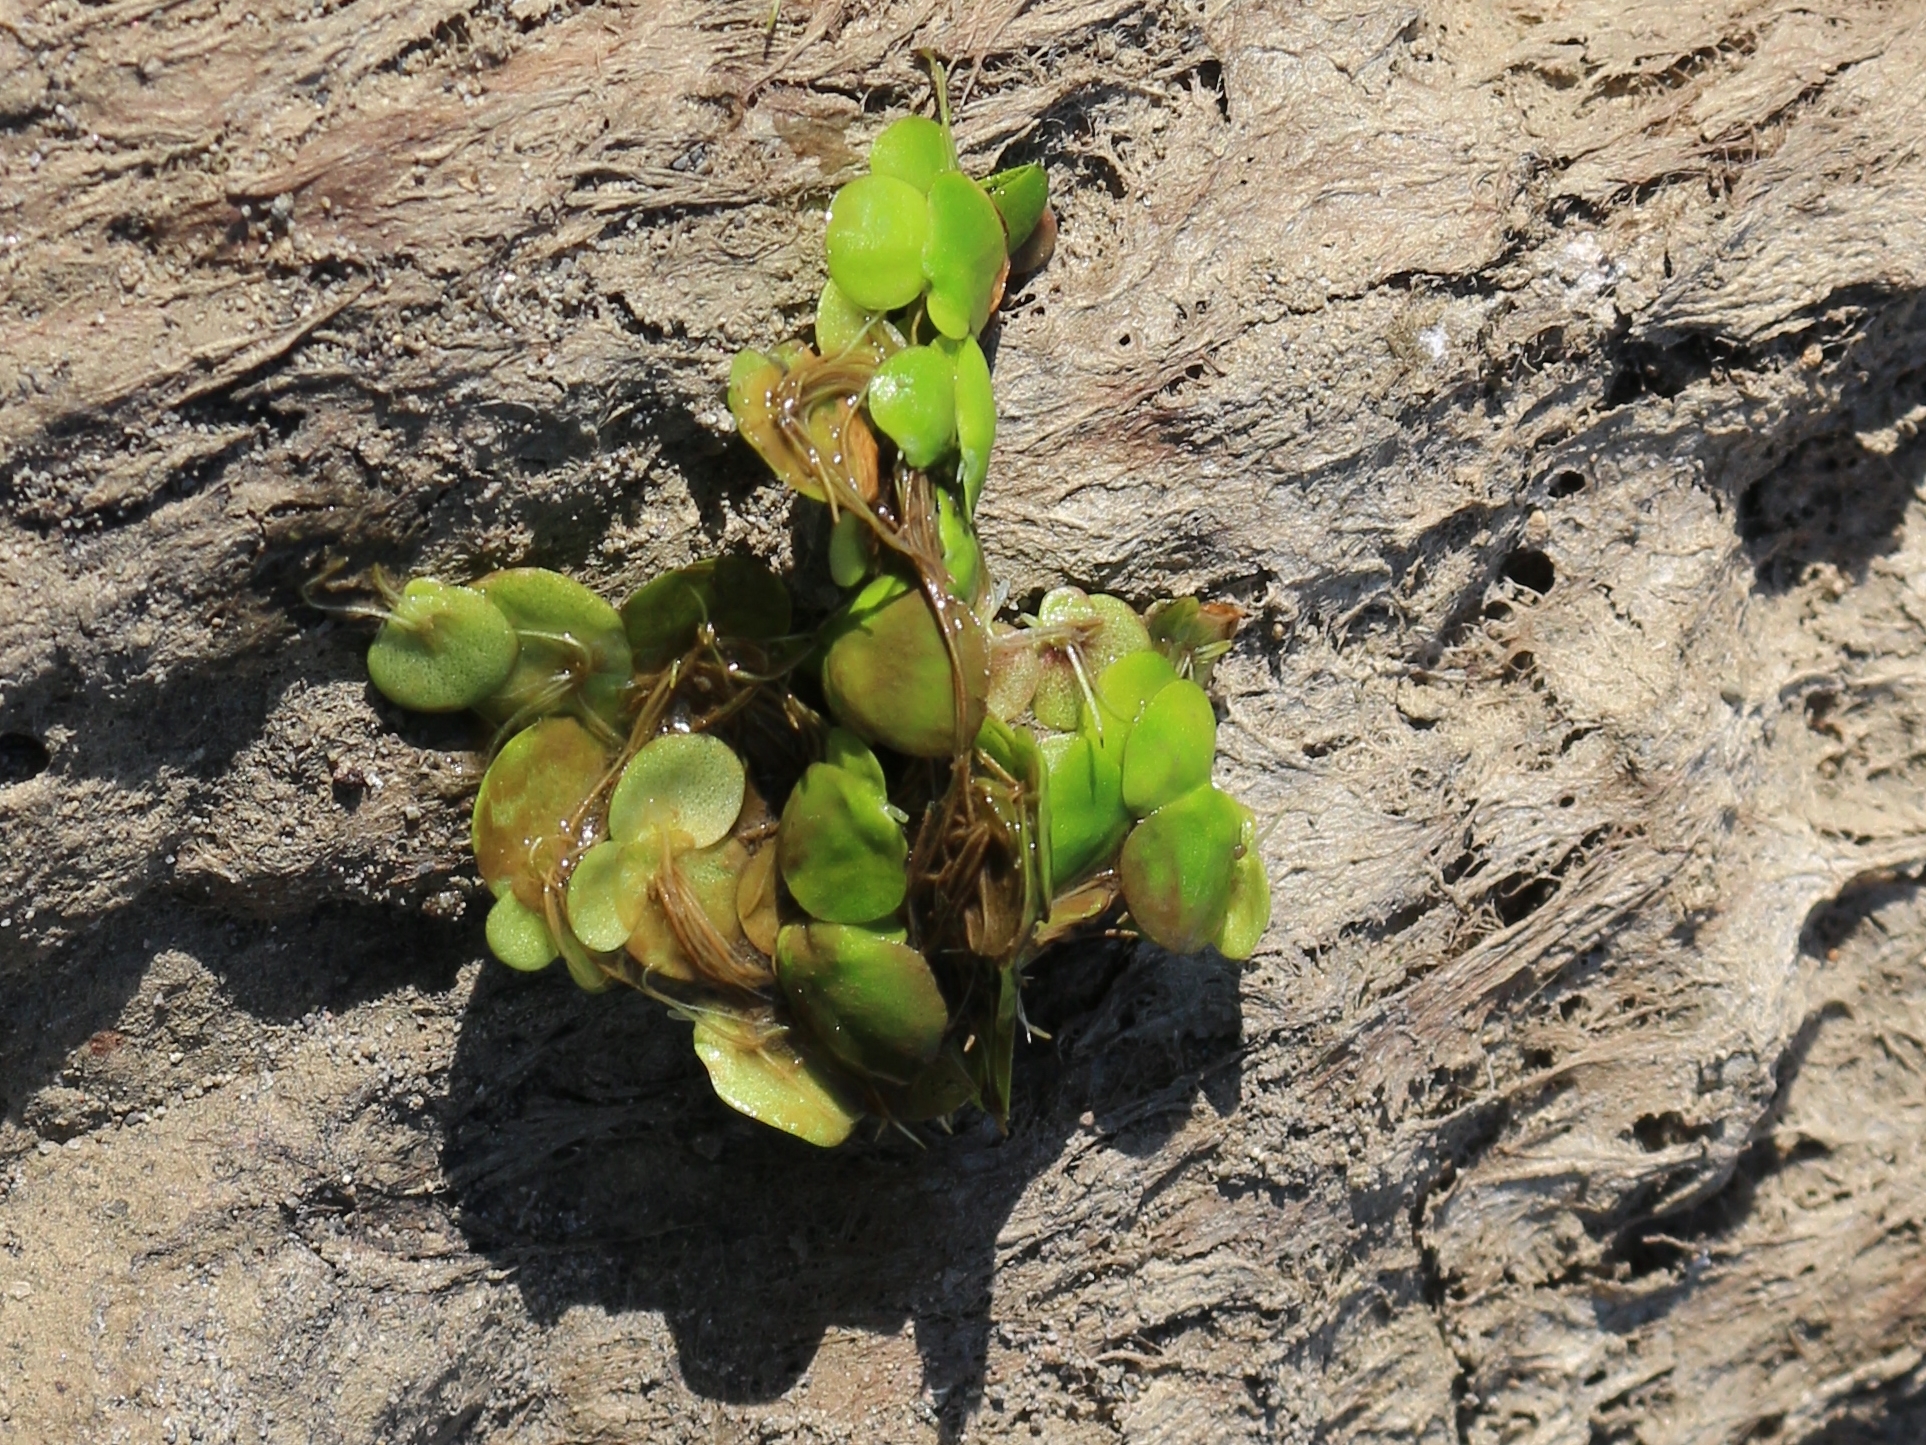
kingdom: Plantae
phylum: Tracheophyta
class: Liliopsida
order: Alismatales
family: Araceae
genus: Spirodela
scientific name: Spirodela polyrhiza
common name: Great duckweed
